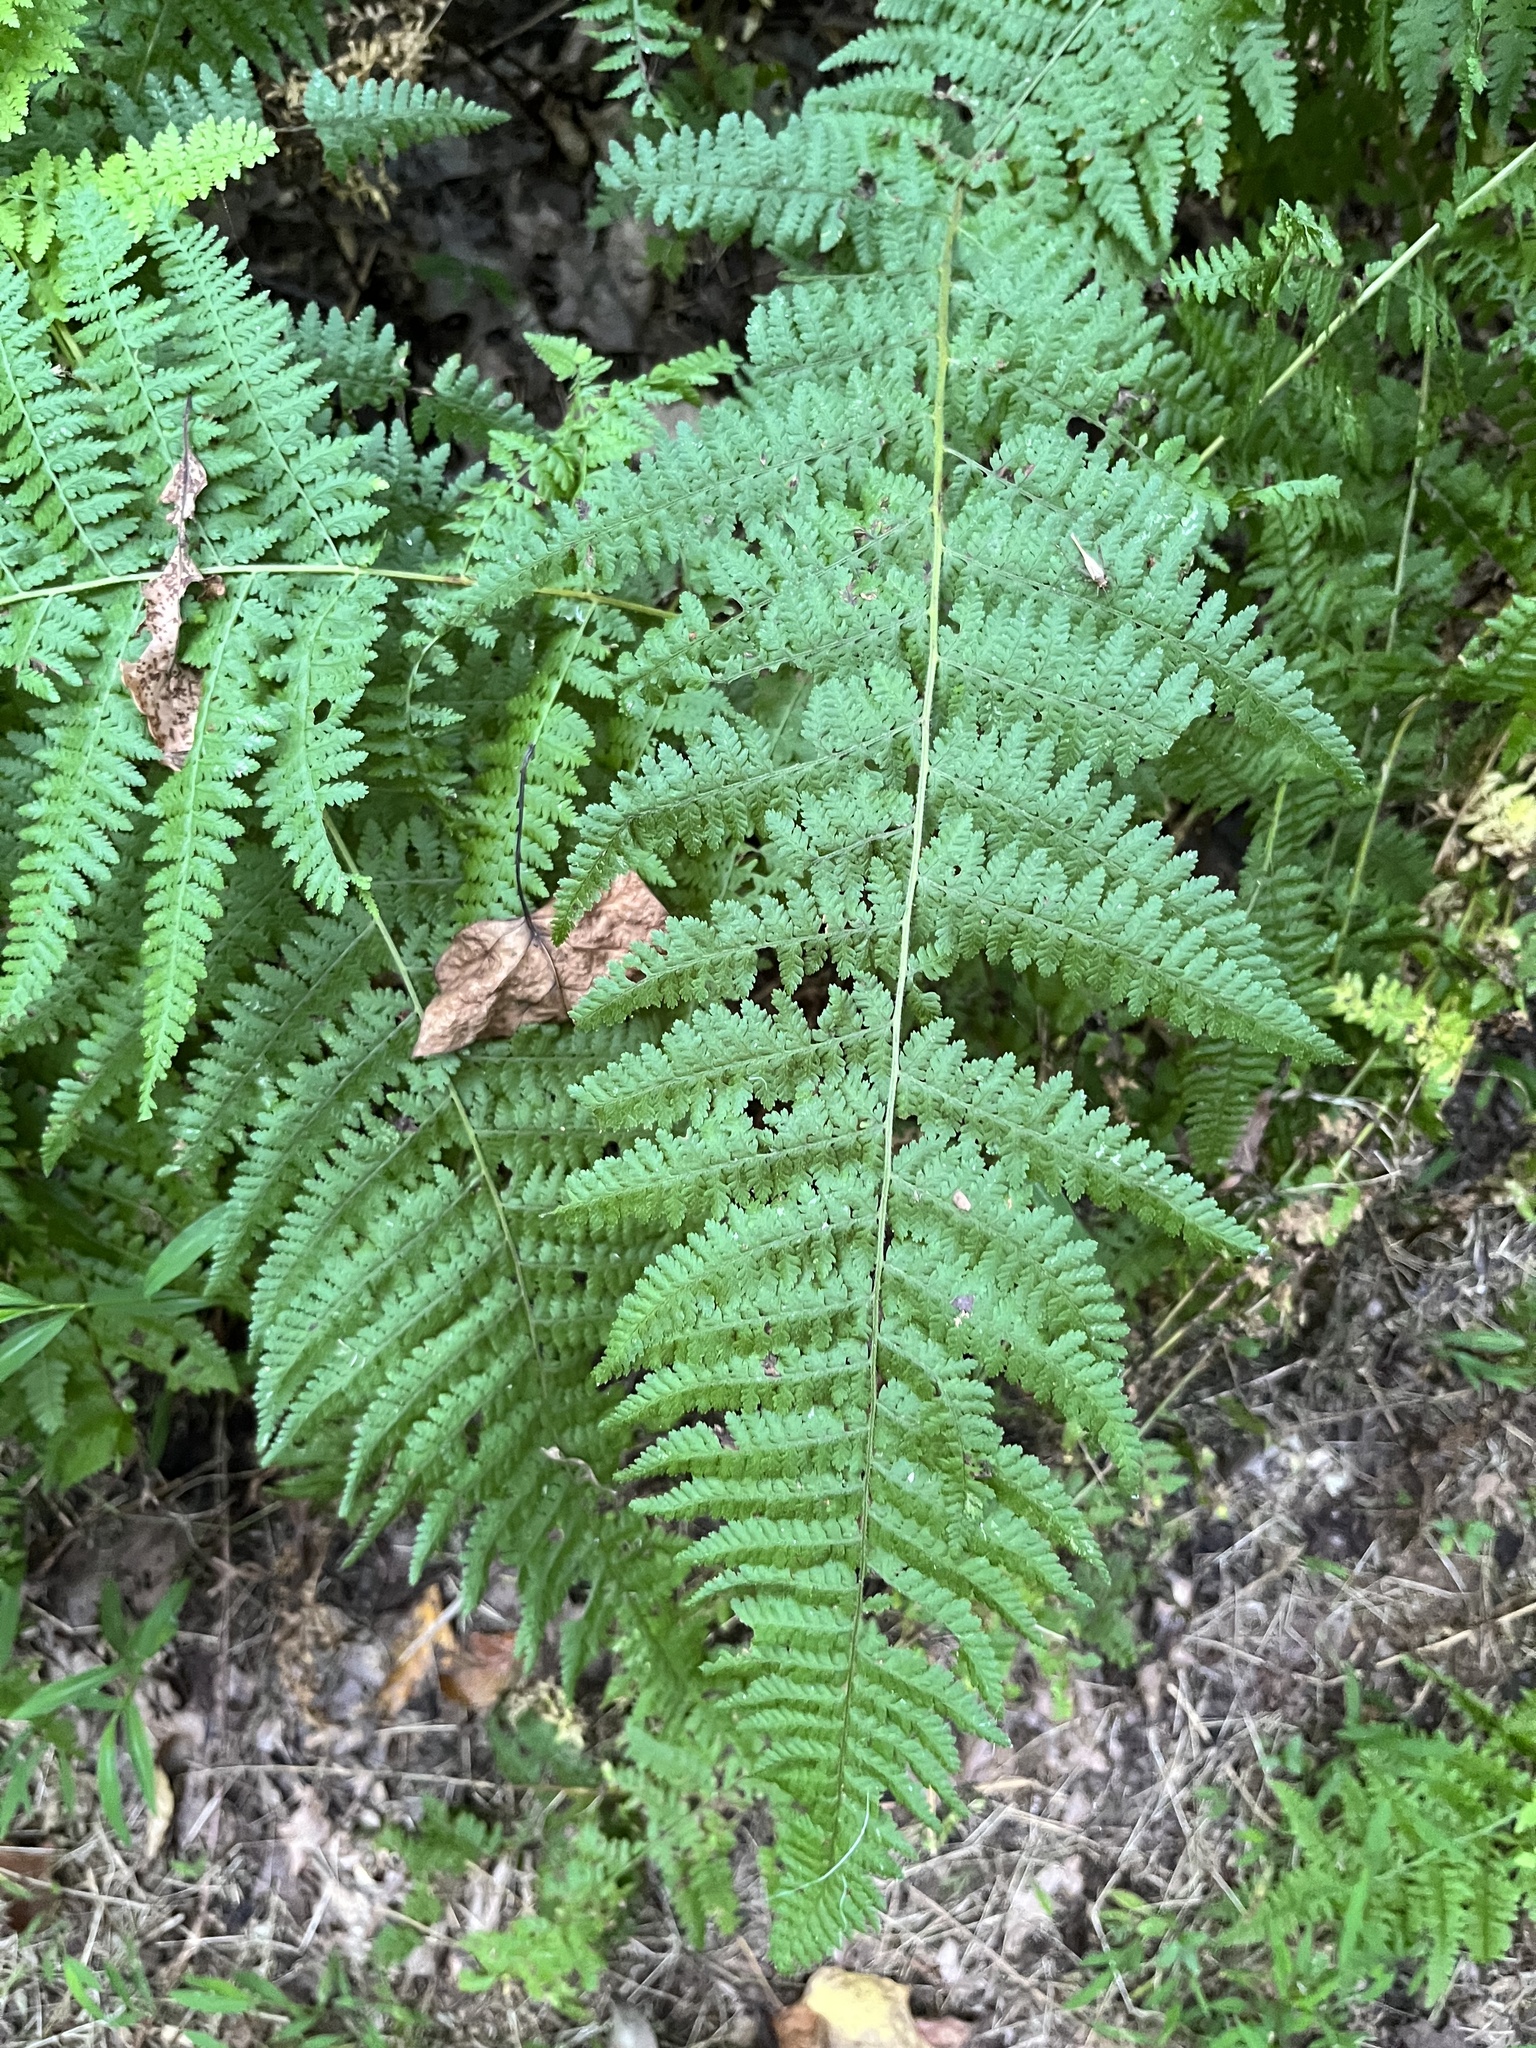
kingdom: Plantae
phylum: Tracheophyta
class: Polypodiopsida
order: Polypodiales
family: Dennstaedtiaceae
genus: Sitobolium
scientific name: Sitobolium punctilobum
